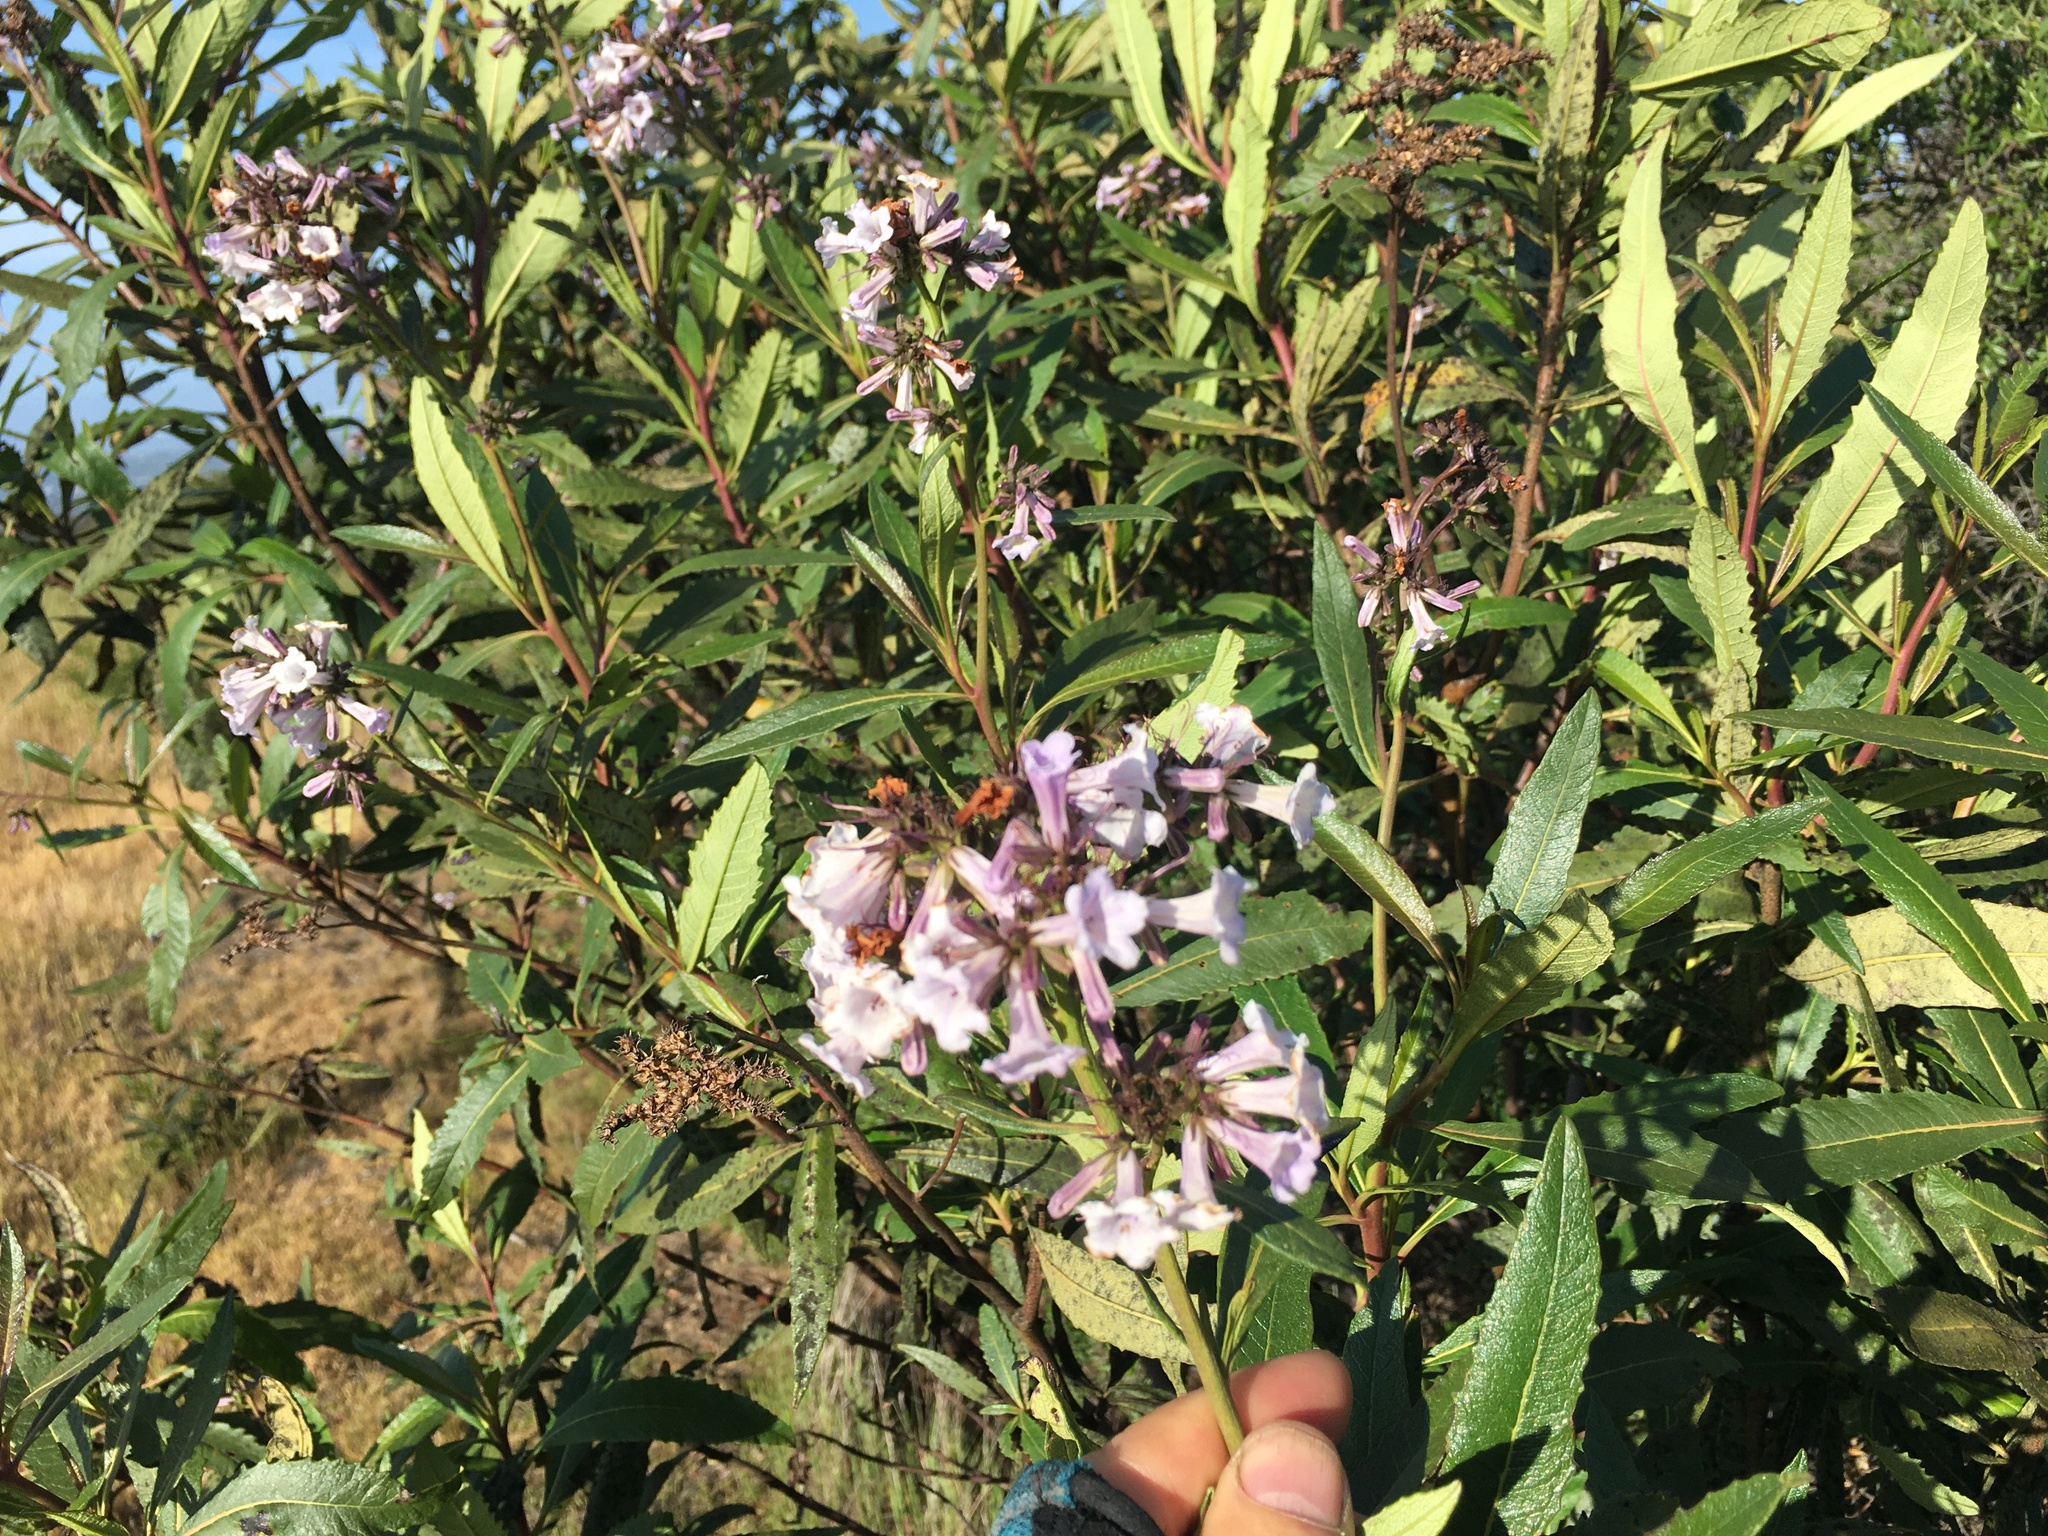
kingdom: Plantae
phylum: Tracheophyta
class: Magnoliopsida
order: Boraginales
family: Namaceae
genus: Eriodictyon
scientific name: Eriodictyon californicum
